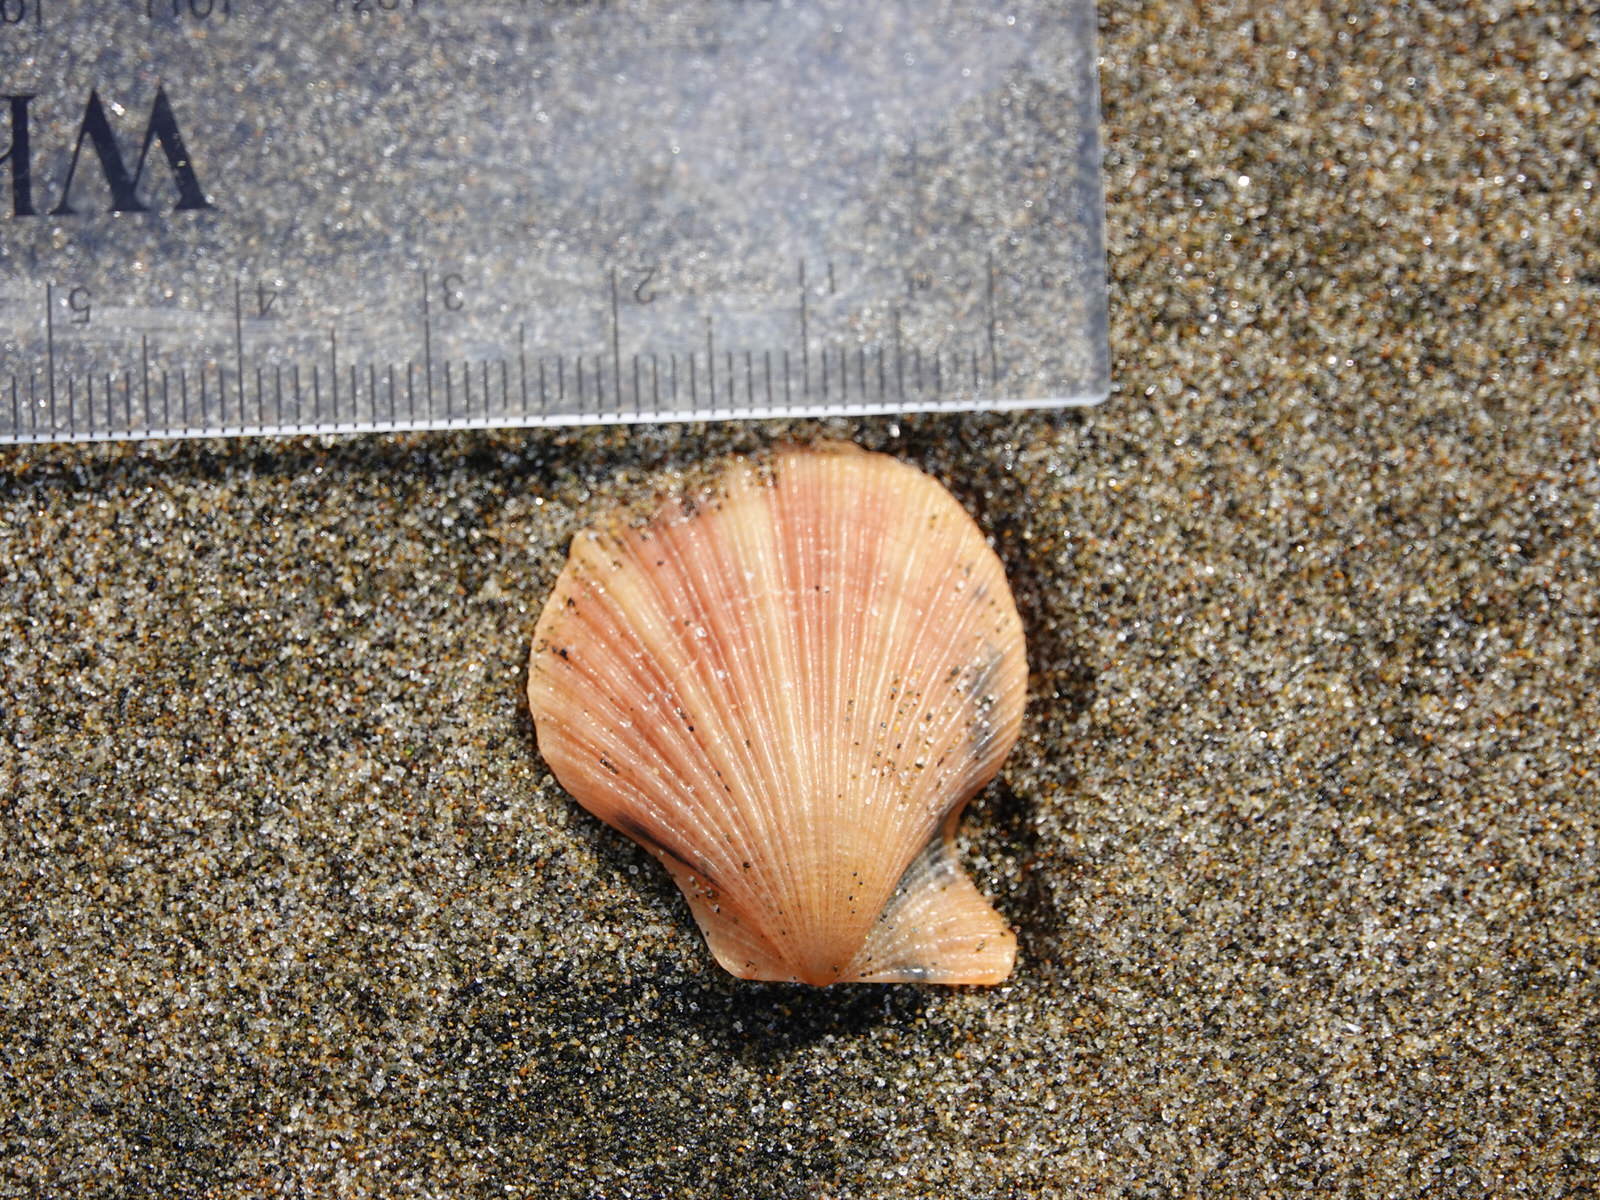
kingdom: Animalia
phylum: Mollusca
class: Bivalvia
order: Pectinida
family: Pectinidae
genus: Talochlamys
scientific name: Talochlamys zelandiae
